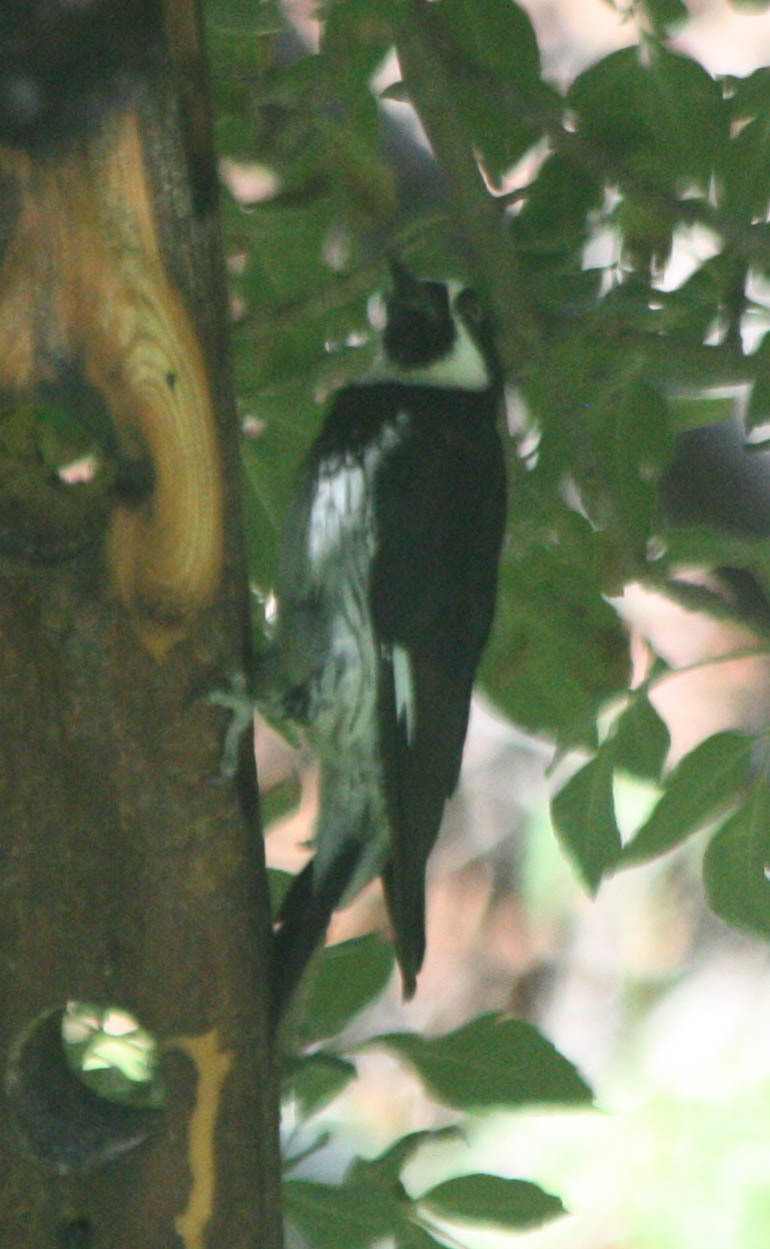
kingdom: Animalia
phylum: Chordata
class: Aves
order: Piciformes
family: Picidae
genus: Melanerpes
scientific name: Melanerpes formicivorus
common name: Acorn woodpecker
